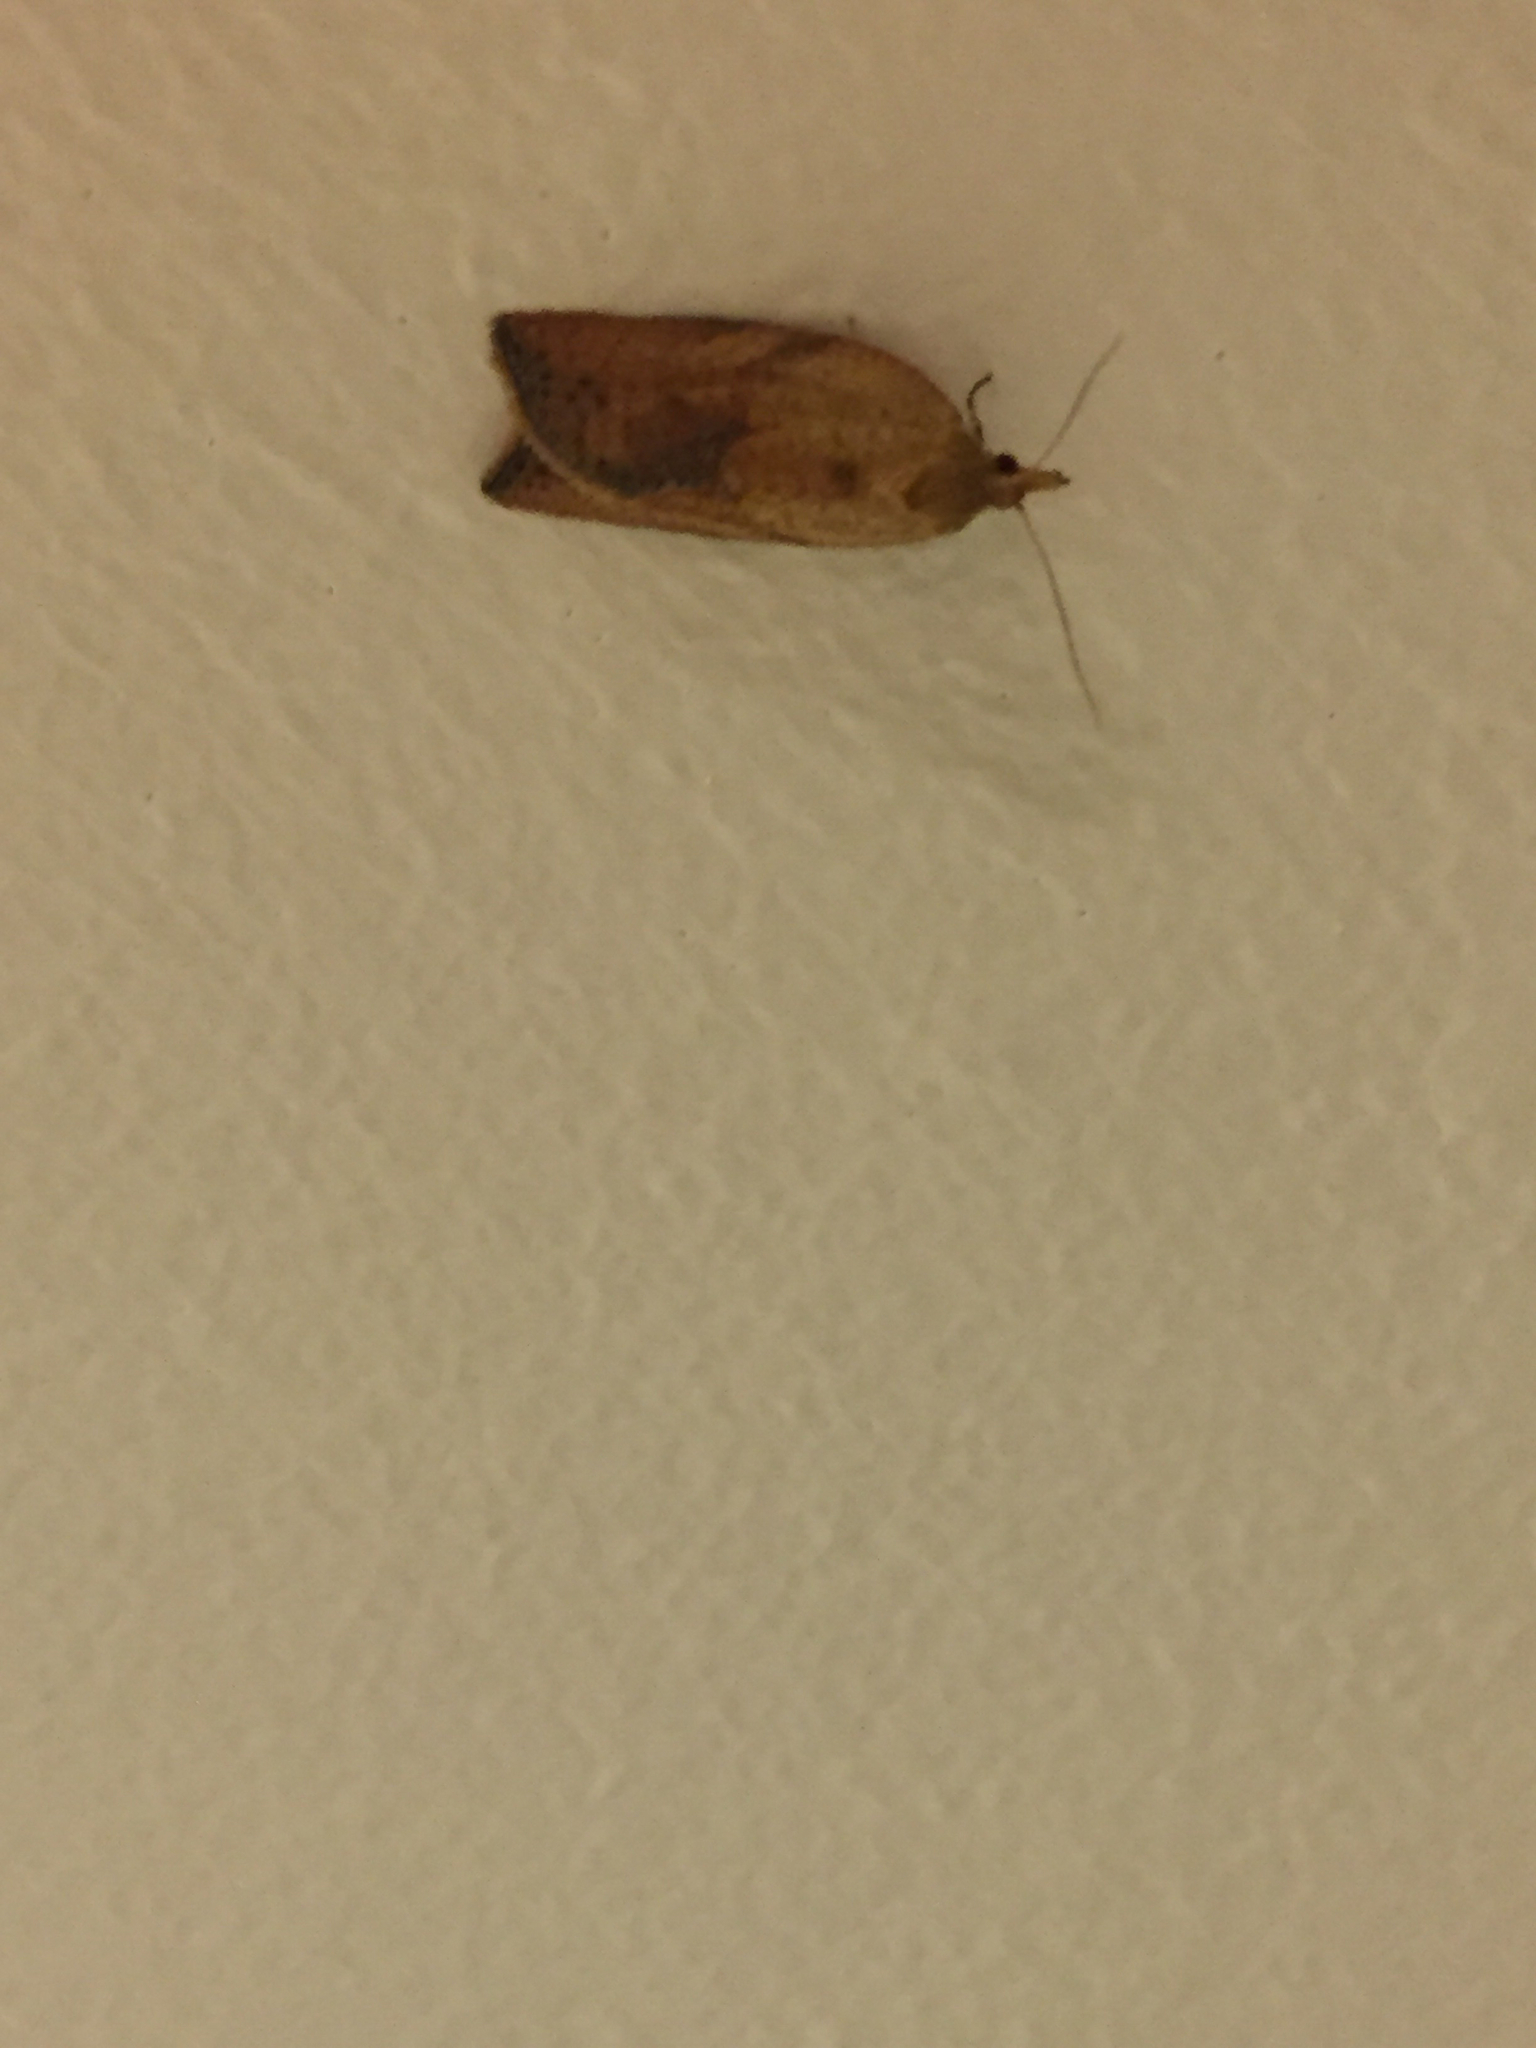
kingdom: Animalia
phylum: Arthropoda
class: Insecta
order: Lepidoptera
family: Tortricidae
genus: Epiphyas
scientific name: Epiphyas postvittana
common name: Light brown apple moth
